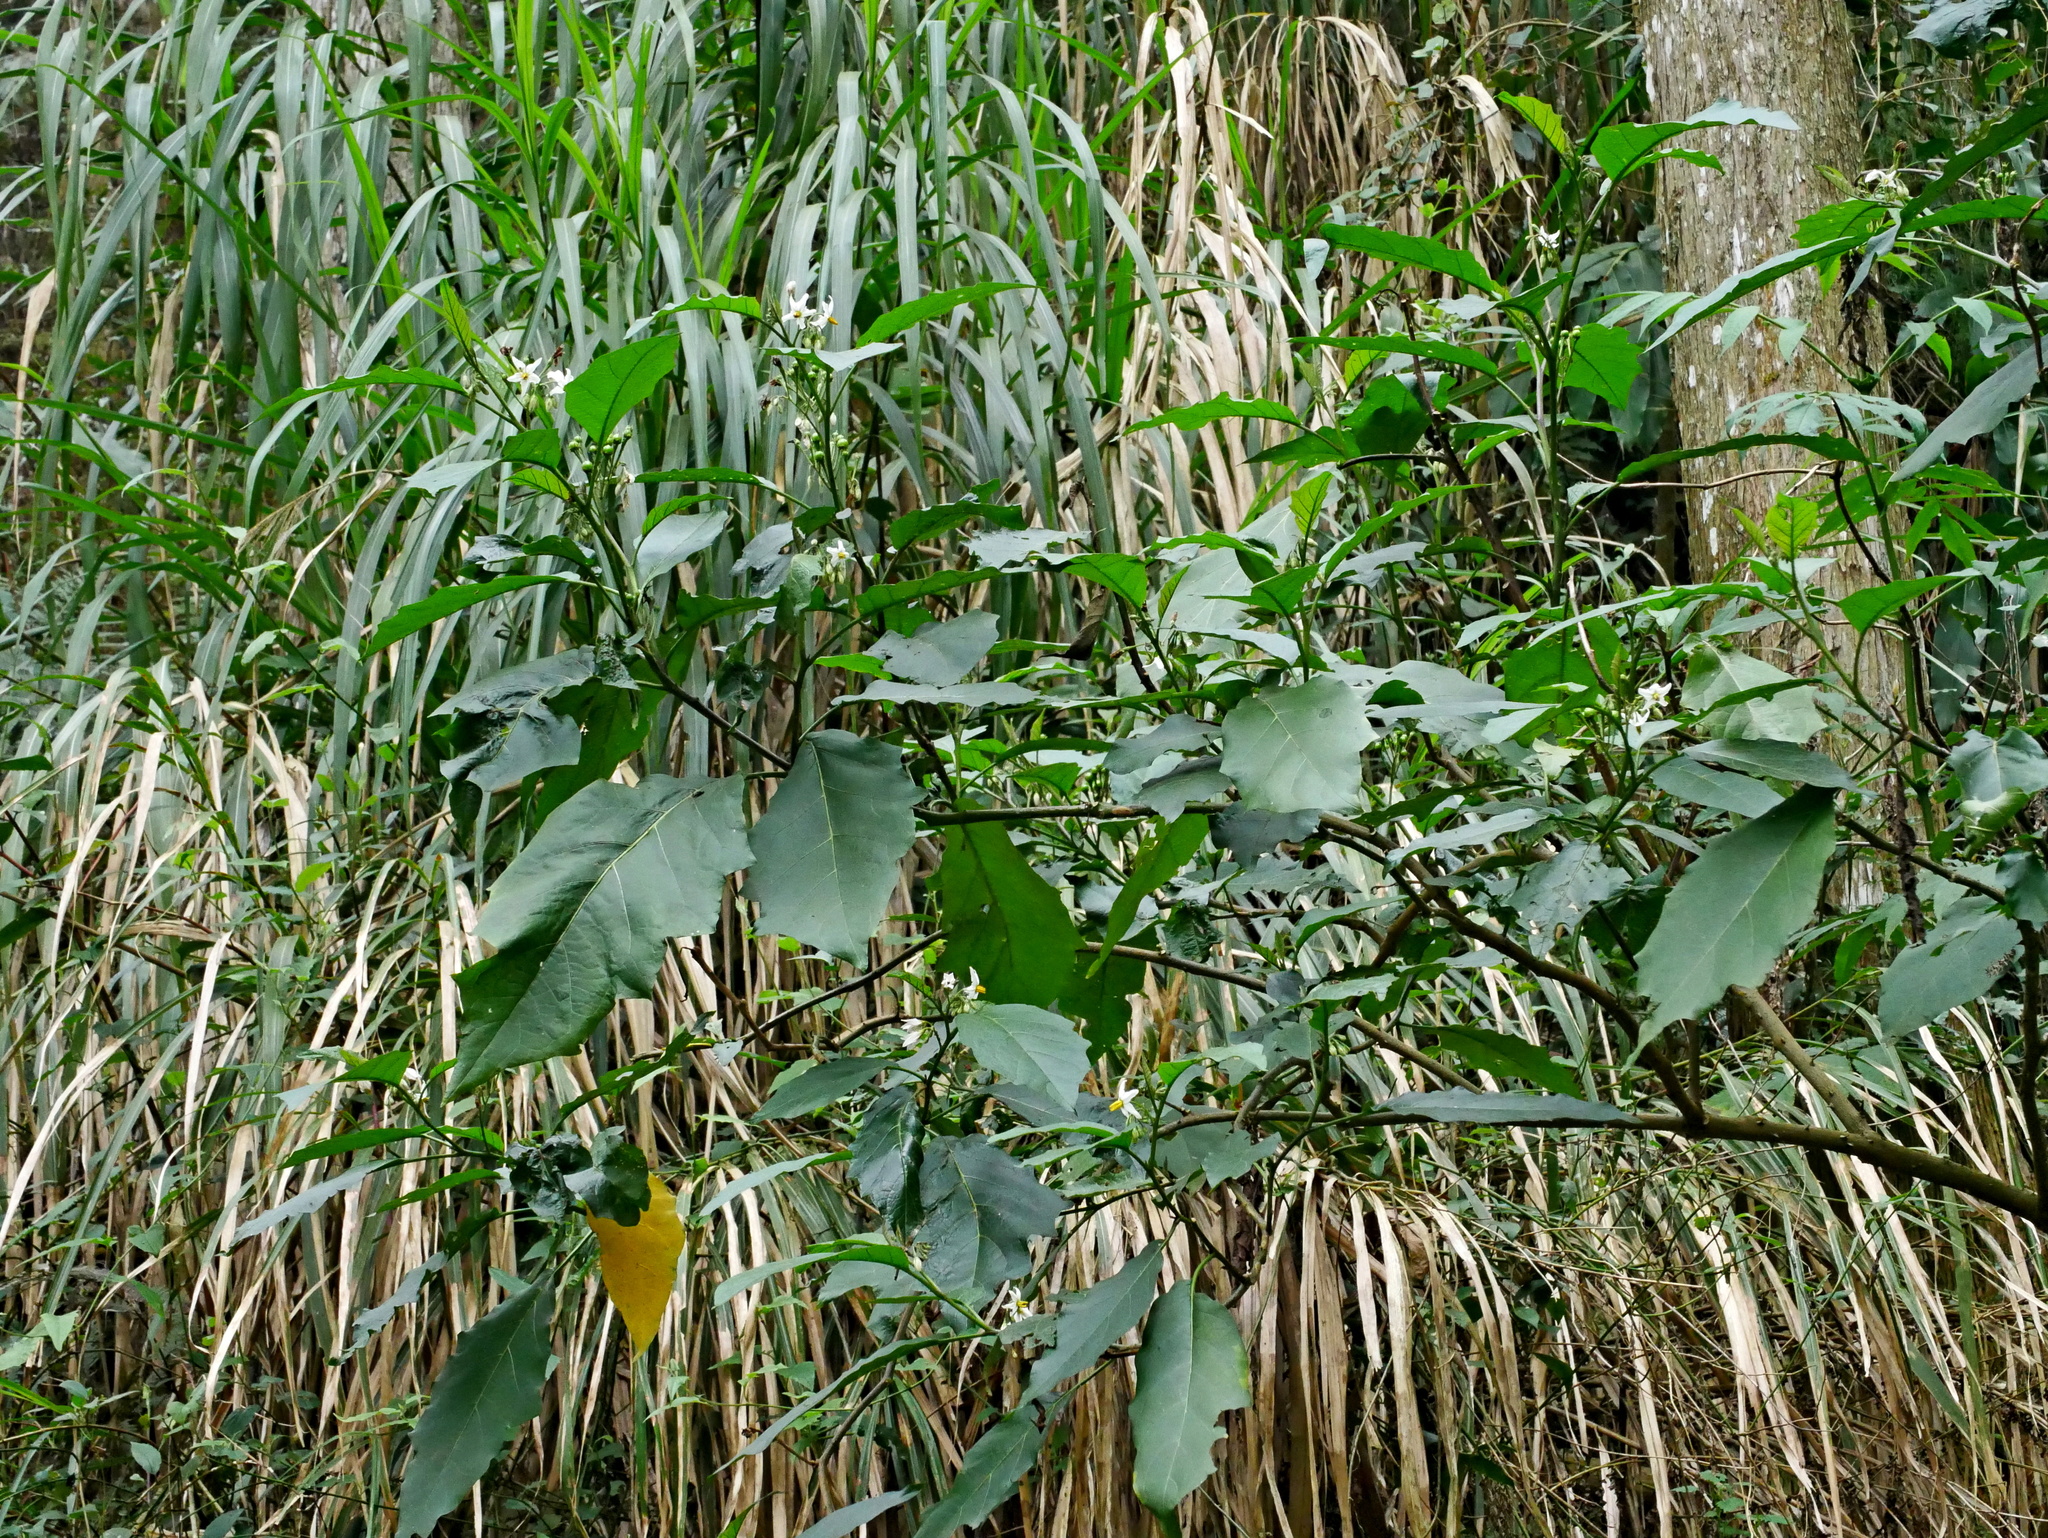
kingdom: Plantae
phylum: Tracheophyta
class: Magnoliopsida
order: Solanales
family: Solanaceae
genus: Solanum
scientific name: Solanum peikuoense
